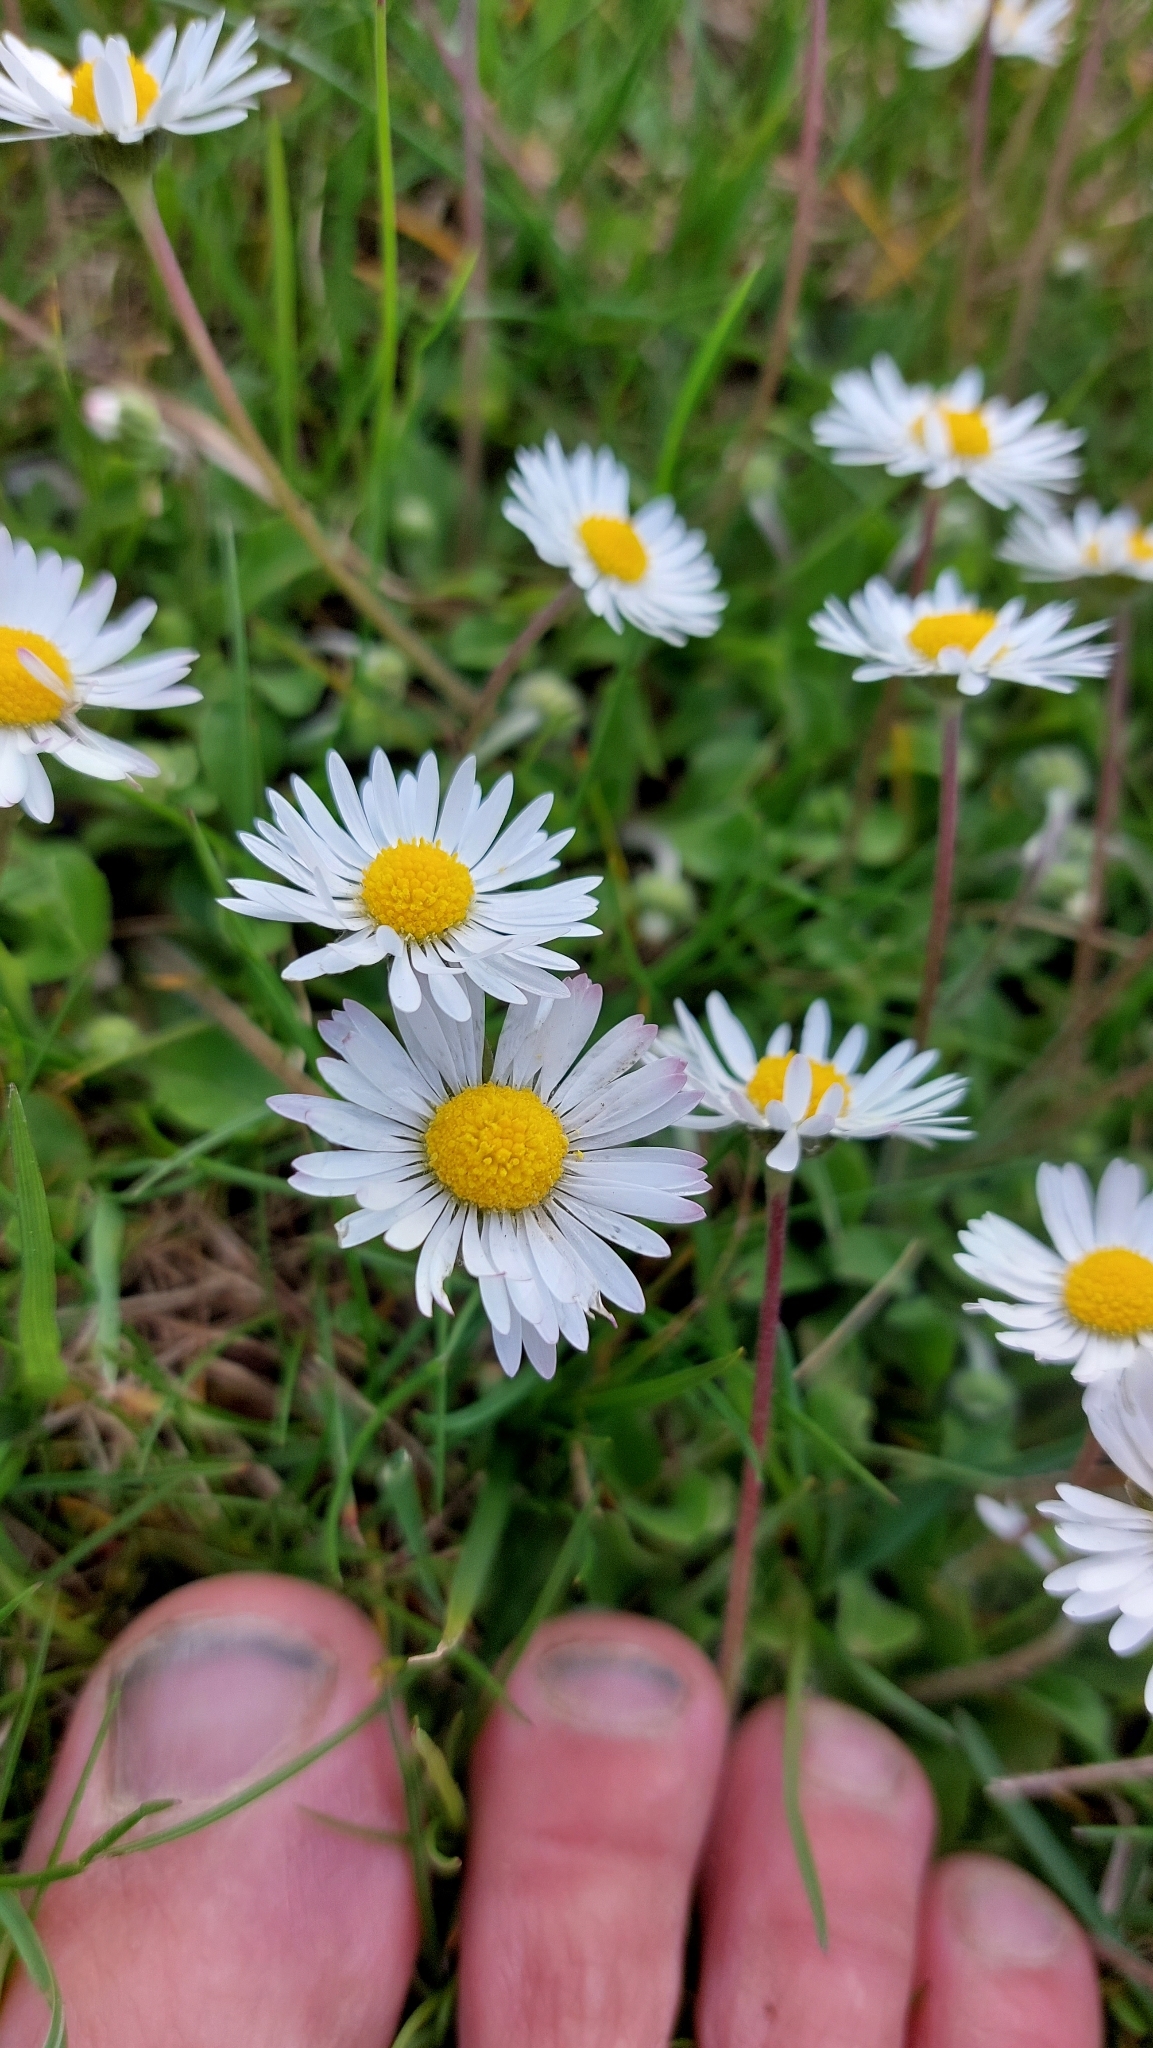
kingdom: Plantae
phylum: Tracheophyta
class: Magnoliopsida
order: Asterales
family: Asteraceae
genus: Bellis
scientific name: Bellis perennis
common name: Lawndaisy
